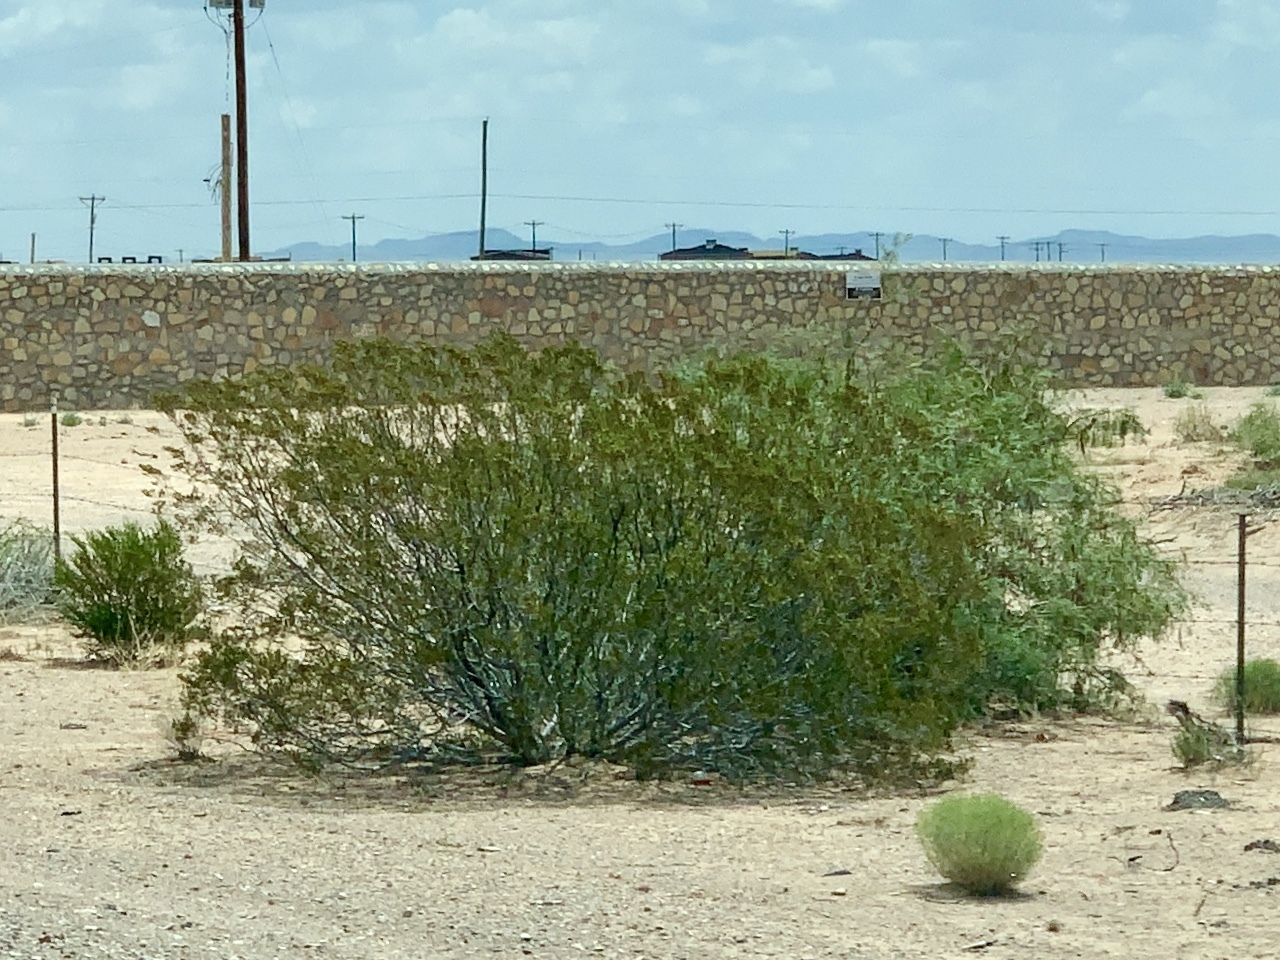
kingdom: Plantae
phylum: Tracheophyta
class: Magnoliopsida
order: Zygophyllales
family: Zygophyllaceae
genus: Larrea
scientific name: Larrea tridentata
